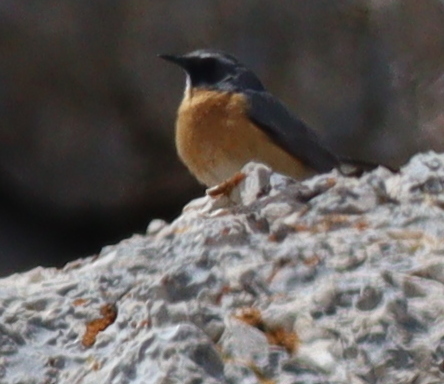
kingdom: Animalia
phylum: Chordata
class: Aves
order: Passeriformes
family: Muscicapidae
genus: Irania
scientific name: Irania gutturalis
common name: White-throated robin
